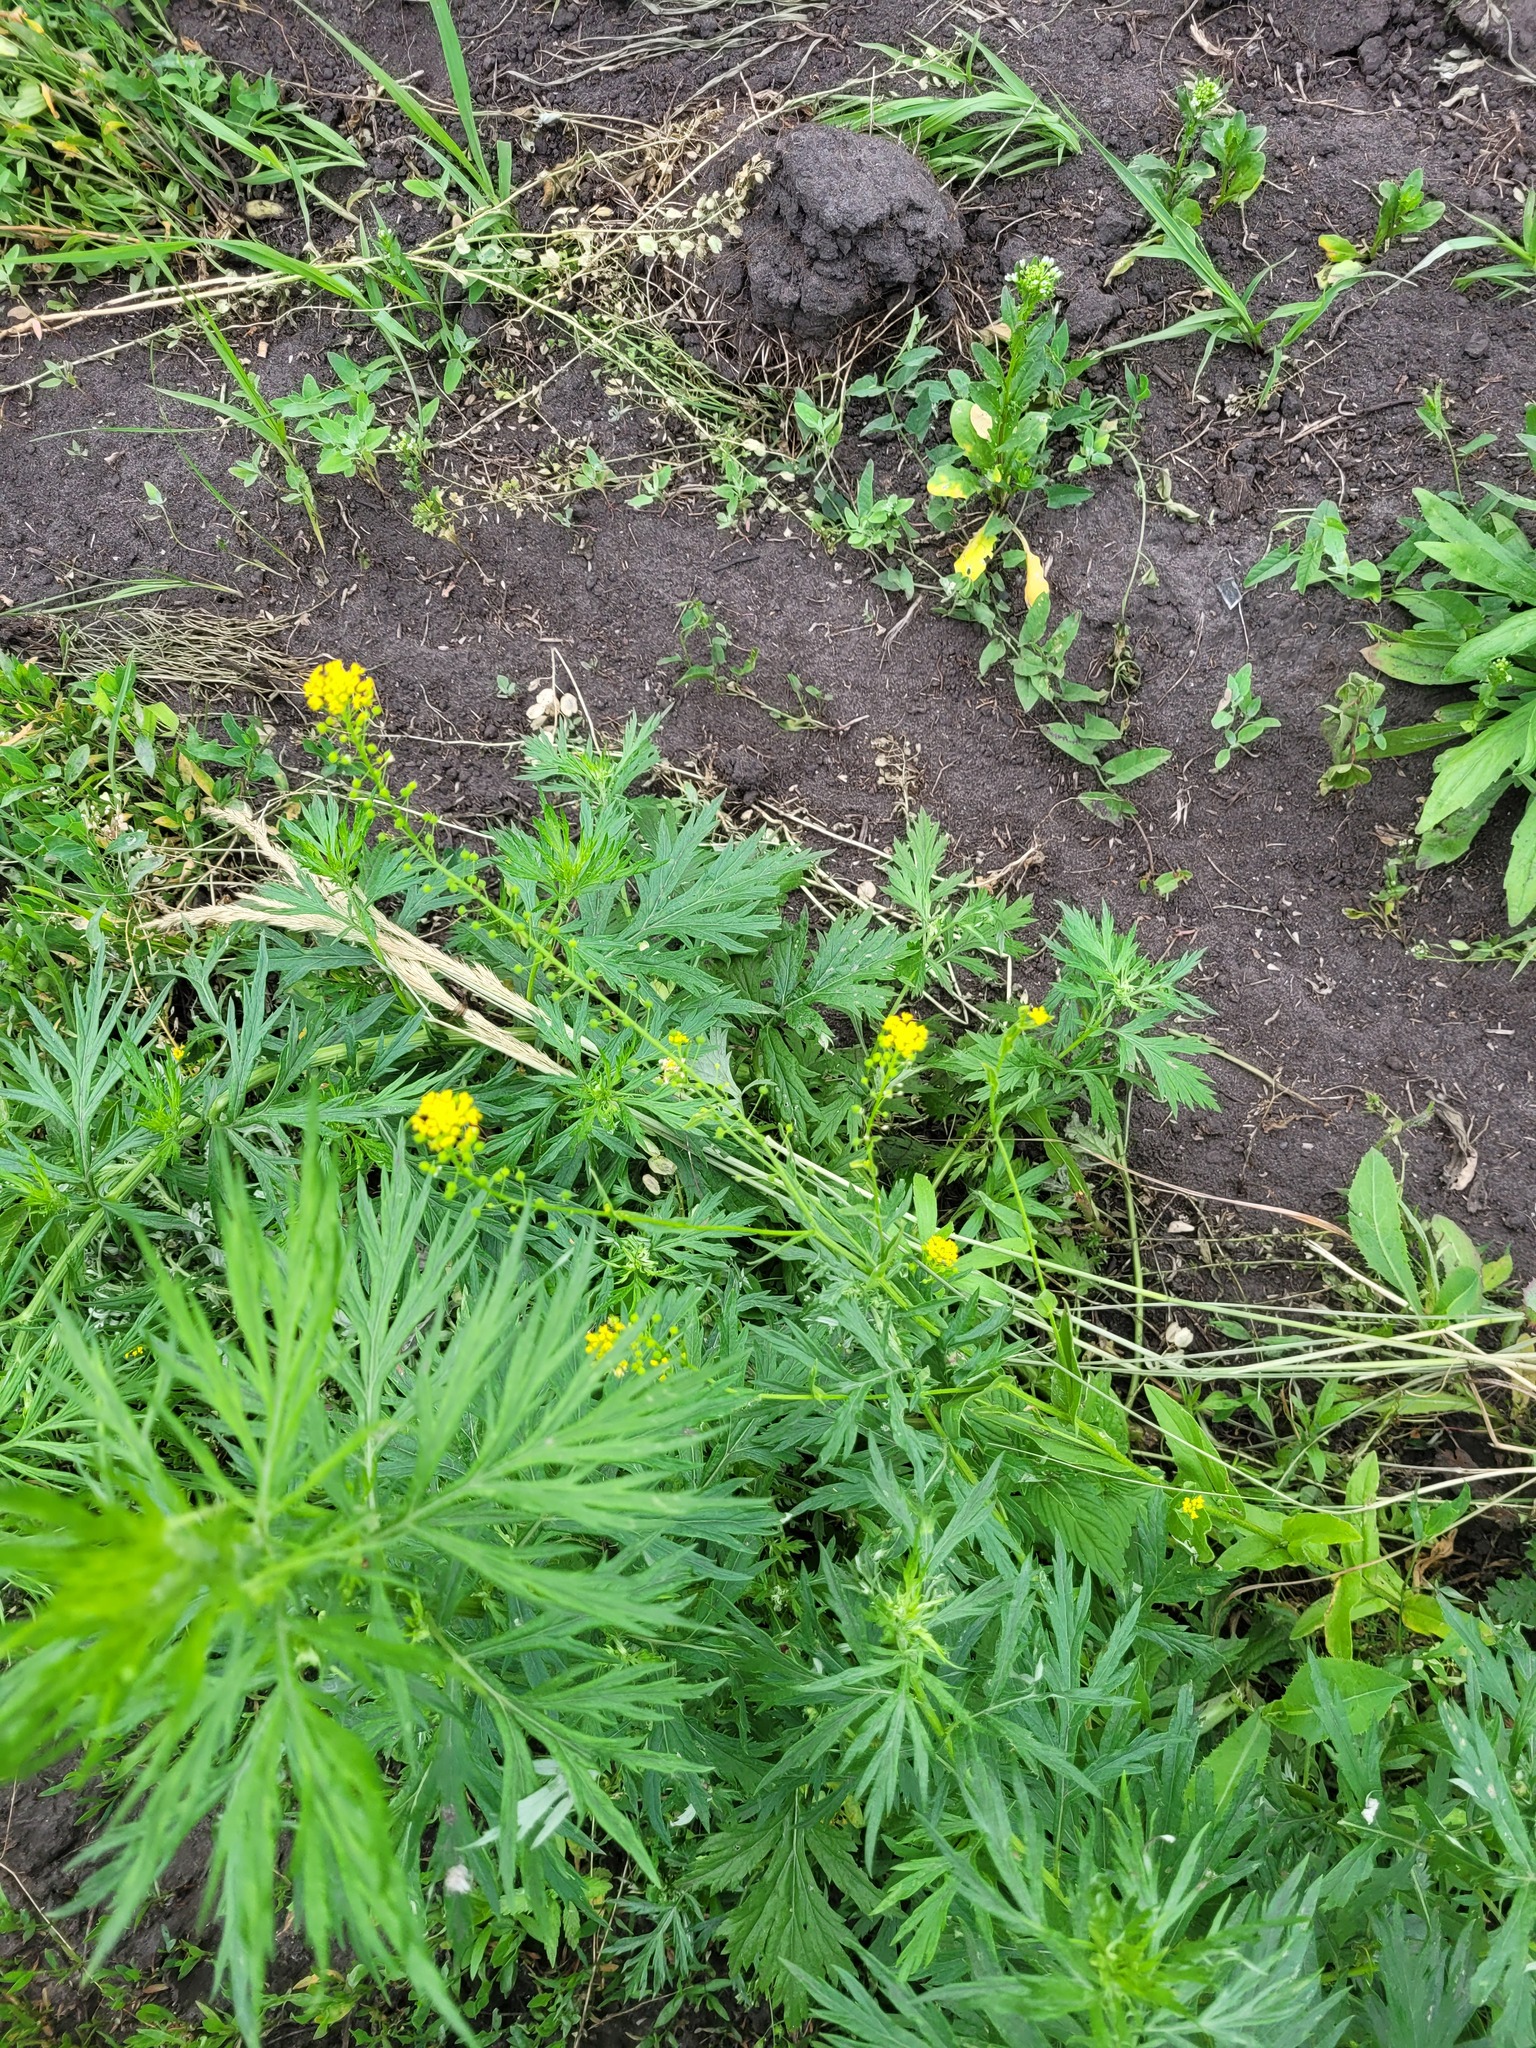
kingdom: Plantae
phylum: Tracheophyta
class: Magnoliopsida
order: Brassicales
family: Brassicaceae
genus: Neslia
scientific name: Neslia paniculata
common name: Ball mustard
